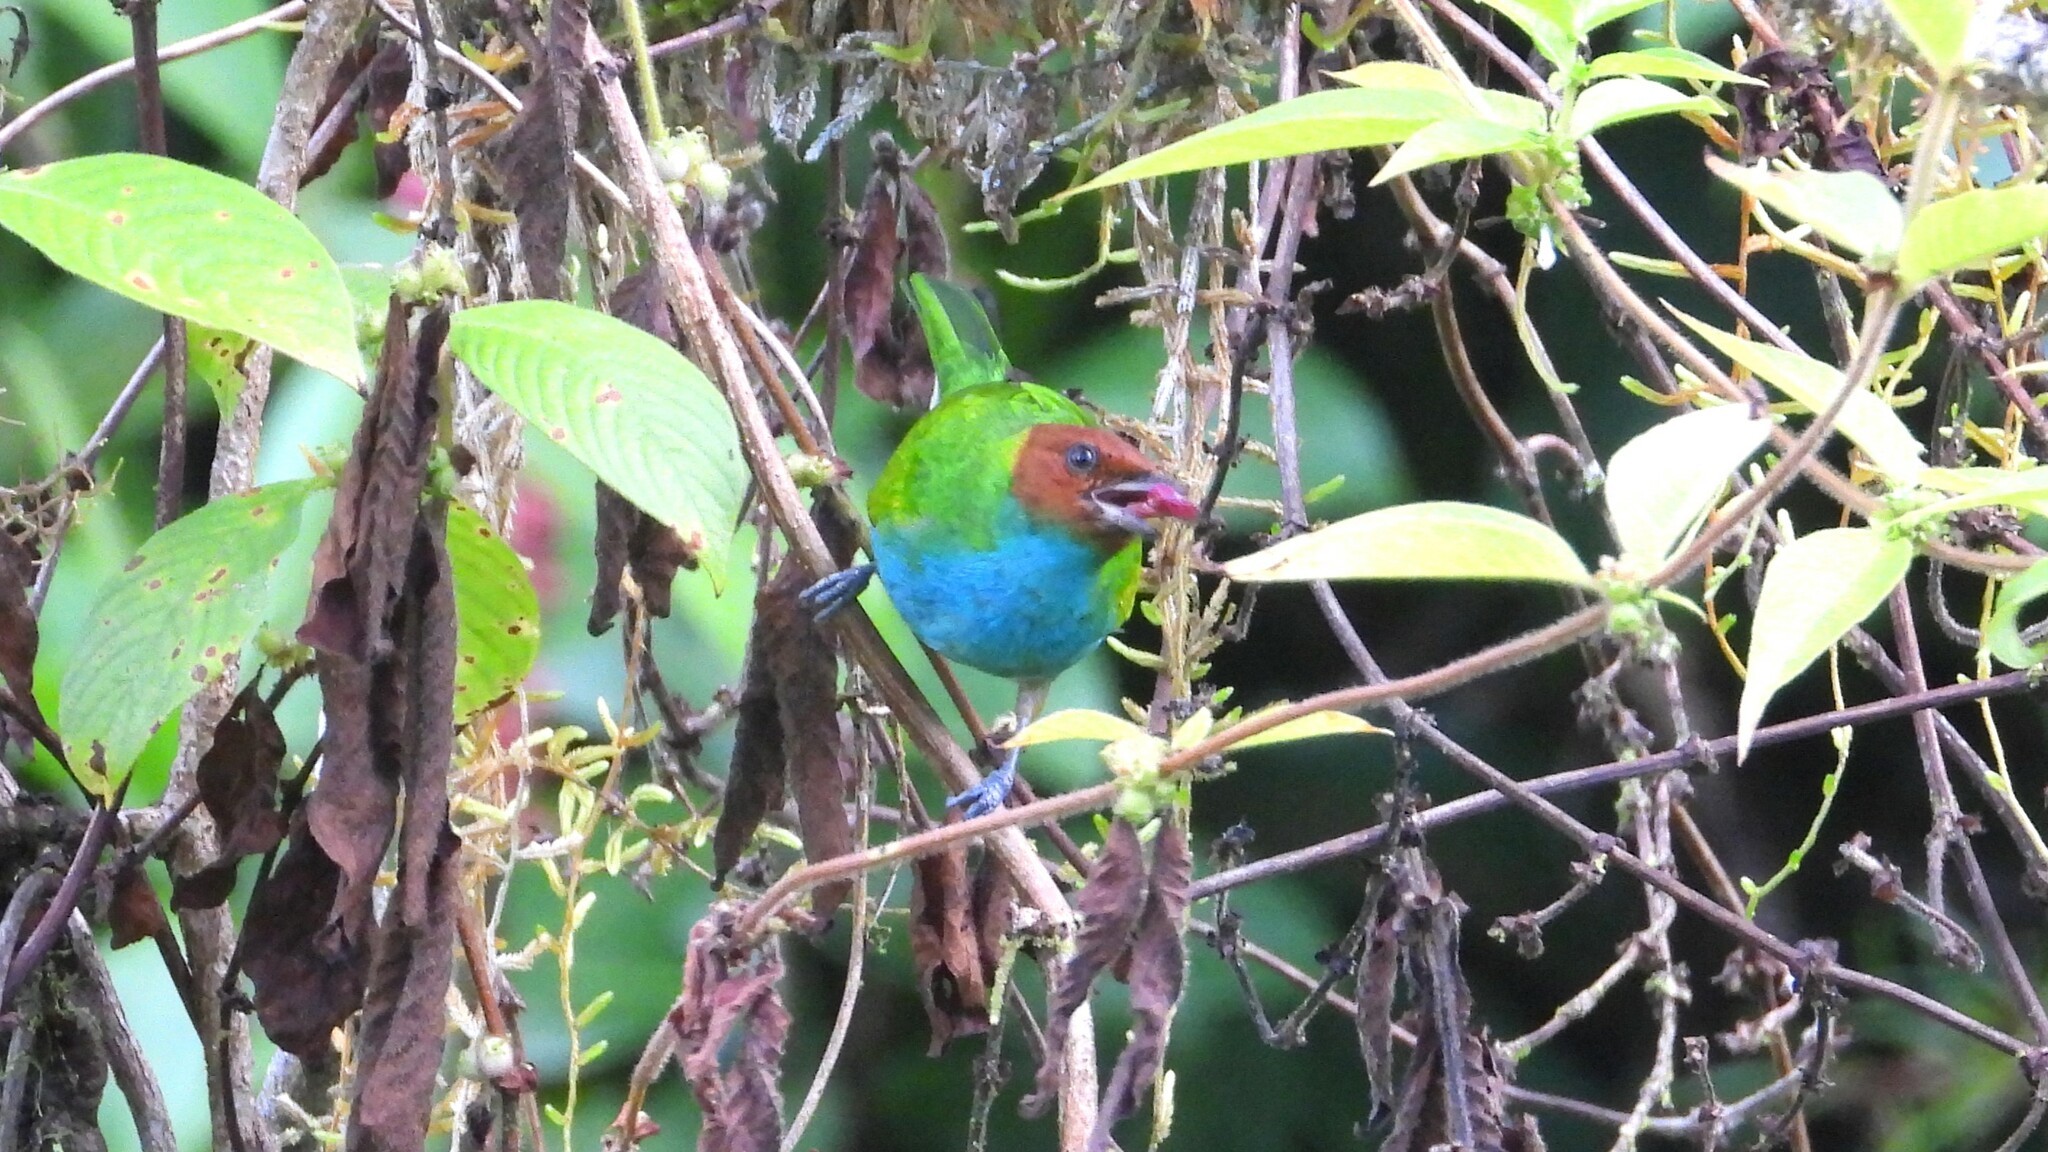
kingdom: Animalia
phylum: Chordata
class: Aves
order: Passeriformes
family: Thraupidae
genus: Tangara
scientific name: Tangara gyrola
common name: Bay-headed tanager
